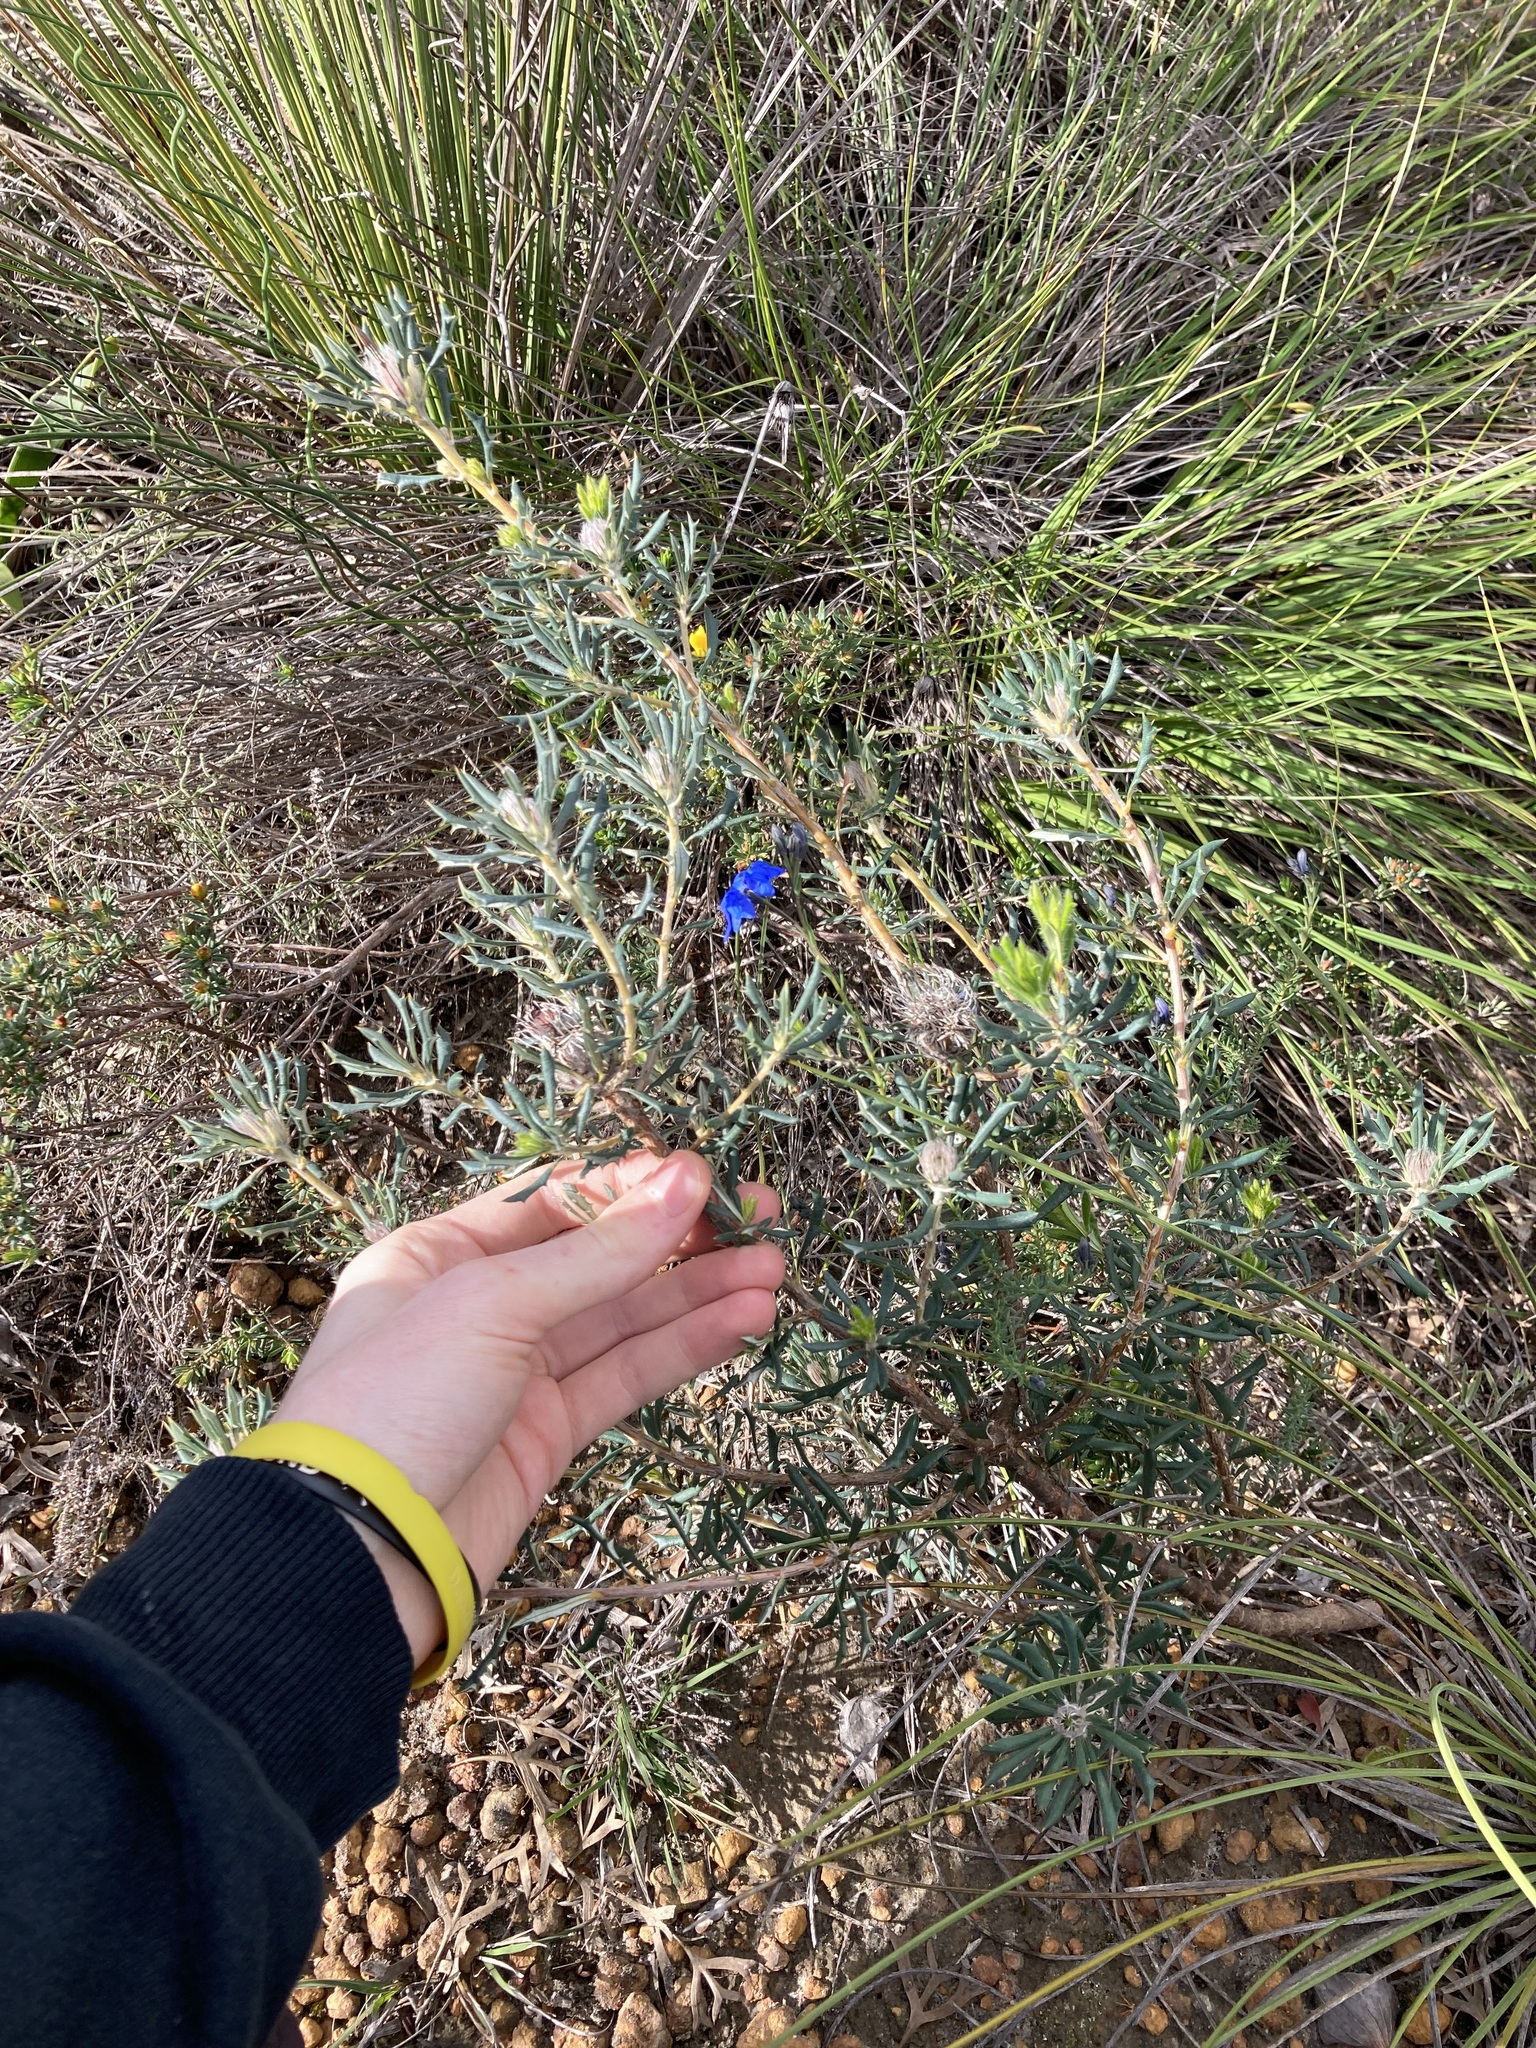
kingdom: Plantae
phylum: Tracheophyta
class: Magnoliopsida
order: Proteales
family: Proteaceae
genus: Banksia
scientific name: Banksia carlinoides
